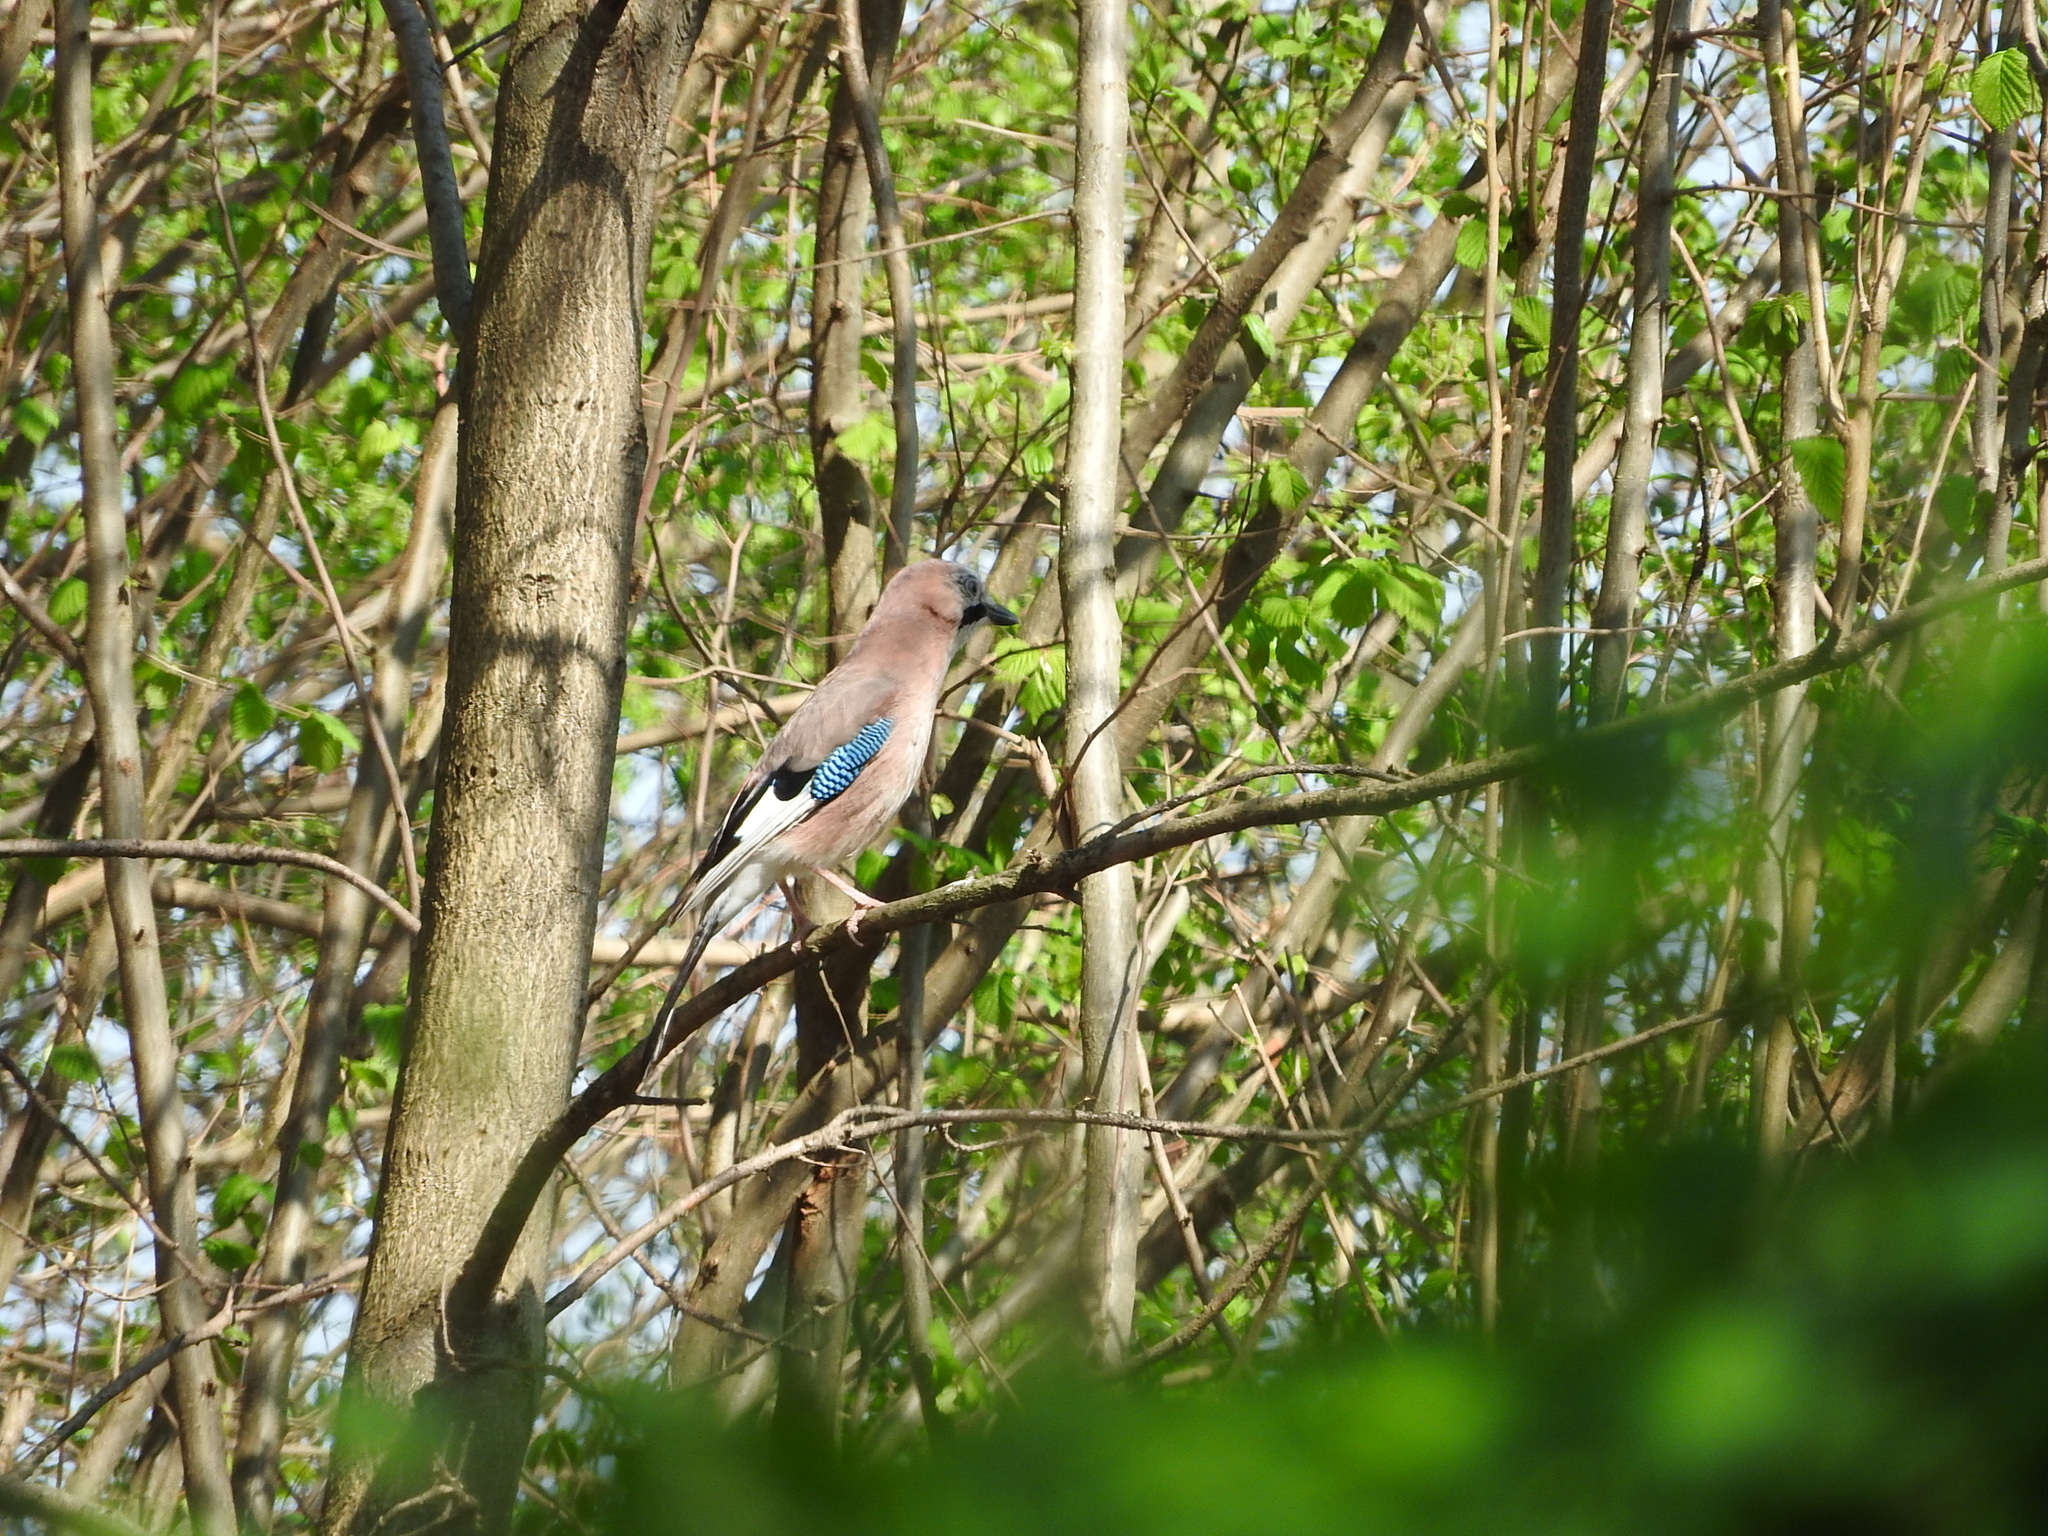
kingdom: Animalia
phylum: Chordata
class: Aves
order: Passeriformes
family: Corvidae
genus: Garrulus
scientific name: Garrulus glandarius
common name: Eurasian jay
